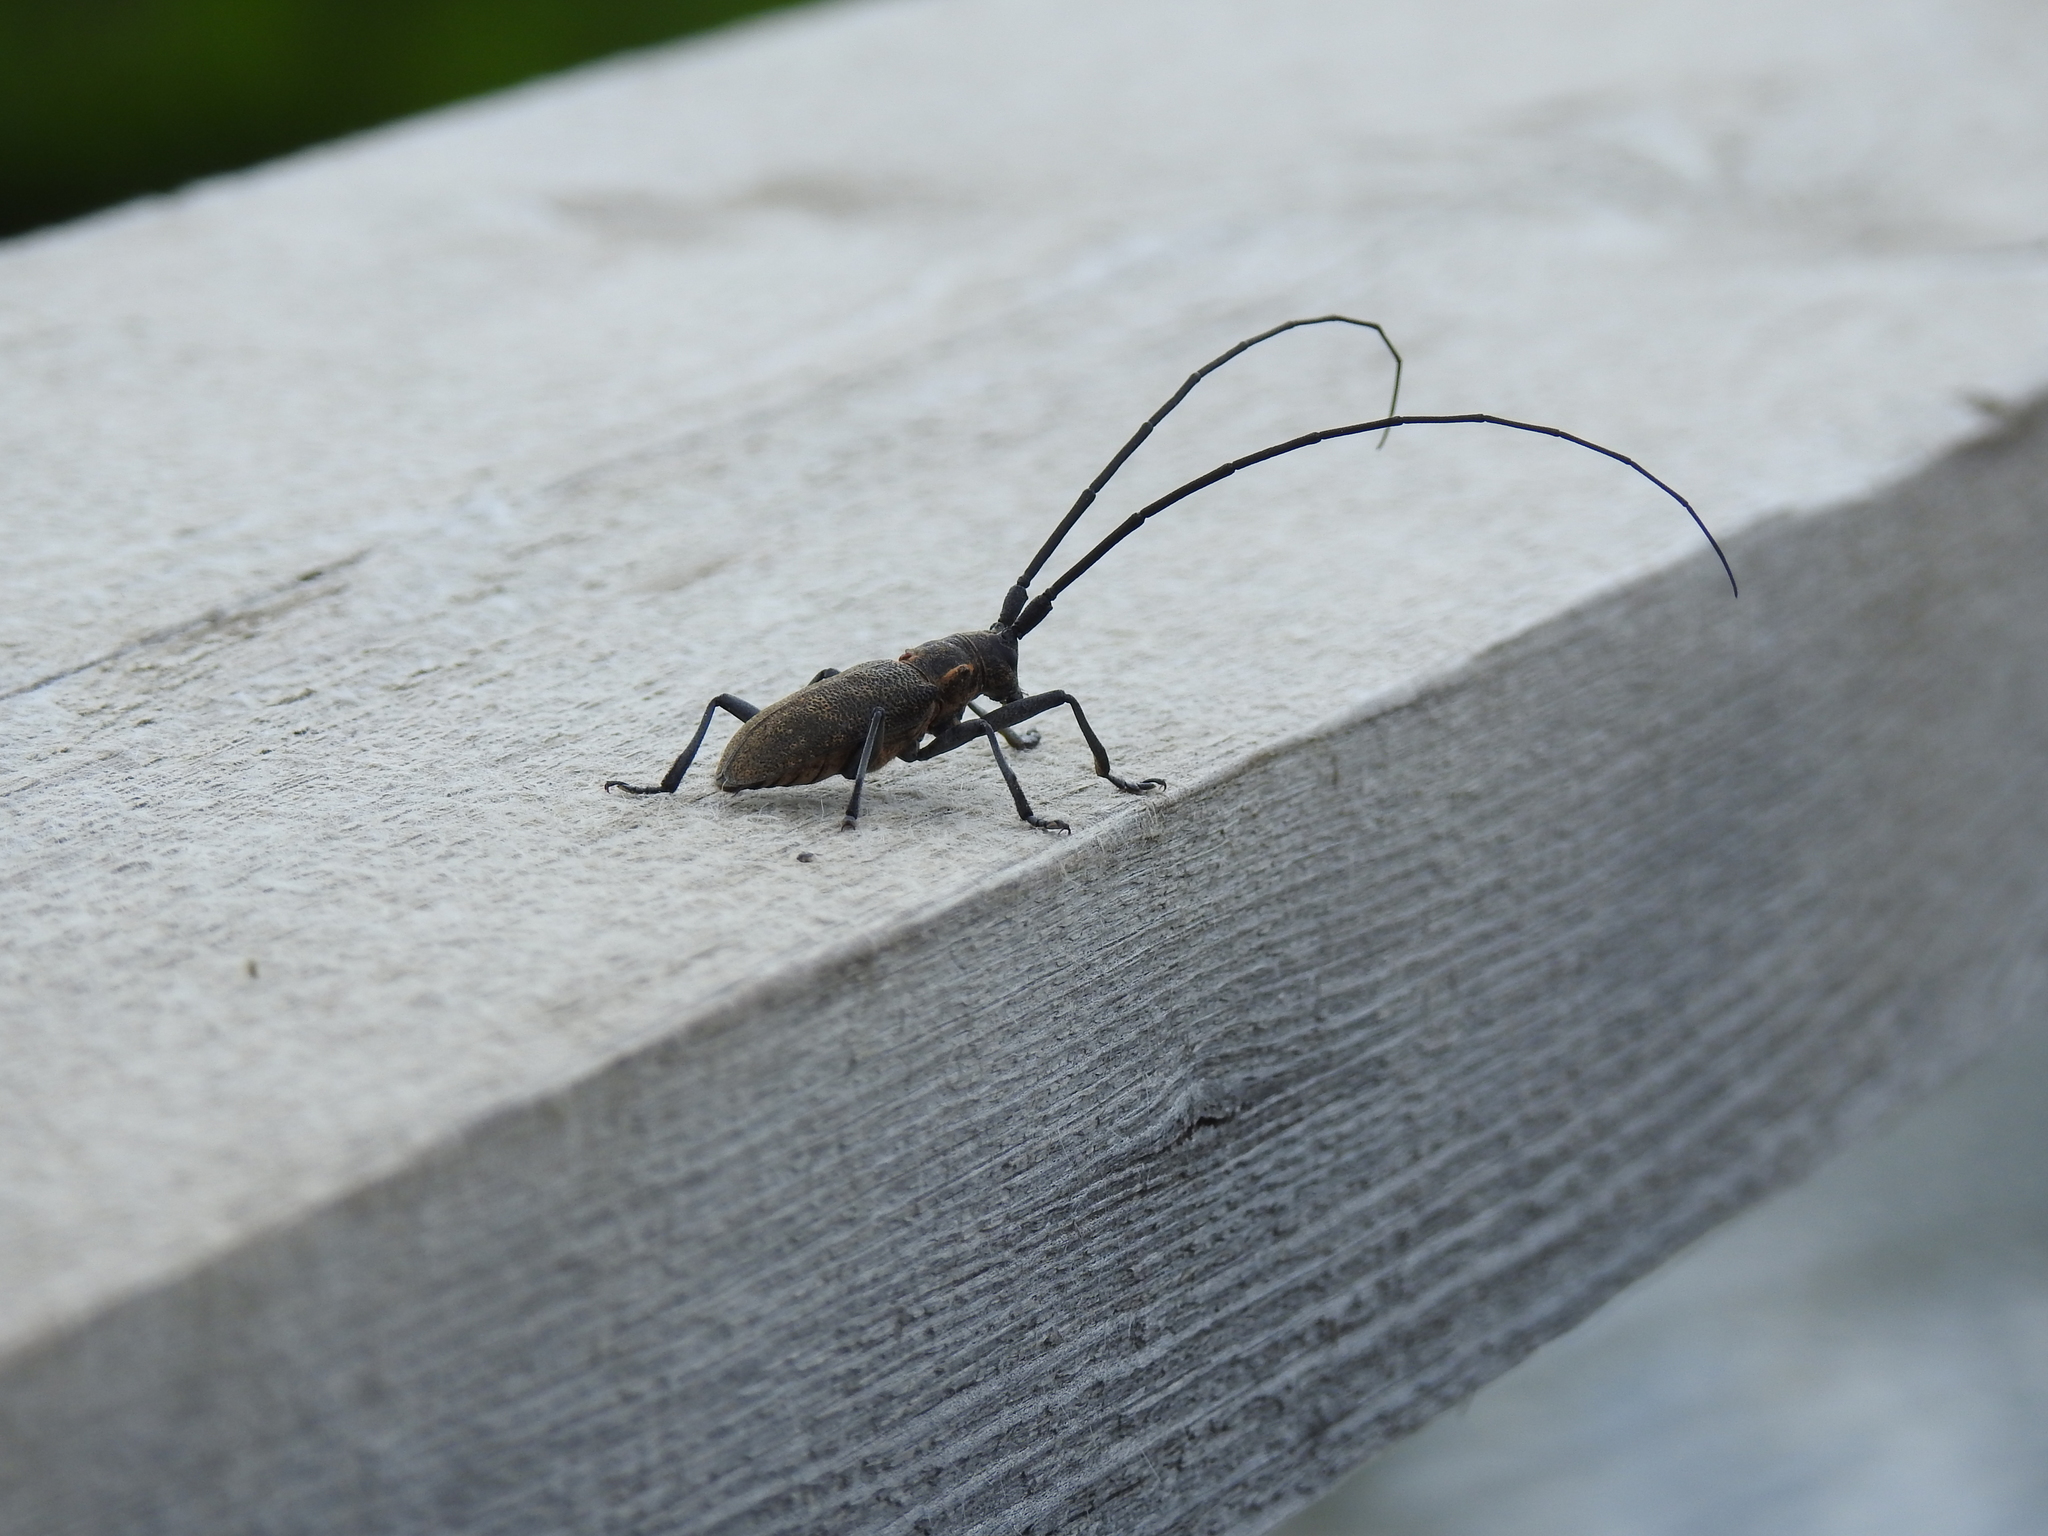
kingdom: Animalia
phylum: Arthropoda
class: Insecta
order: Coleoptera
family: Cerambycidae
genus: Monochamus
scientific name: Monochamus galloprovincialis
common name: Pine sawyer
